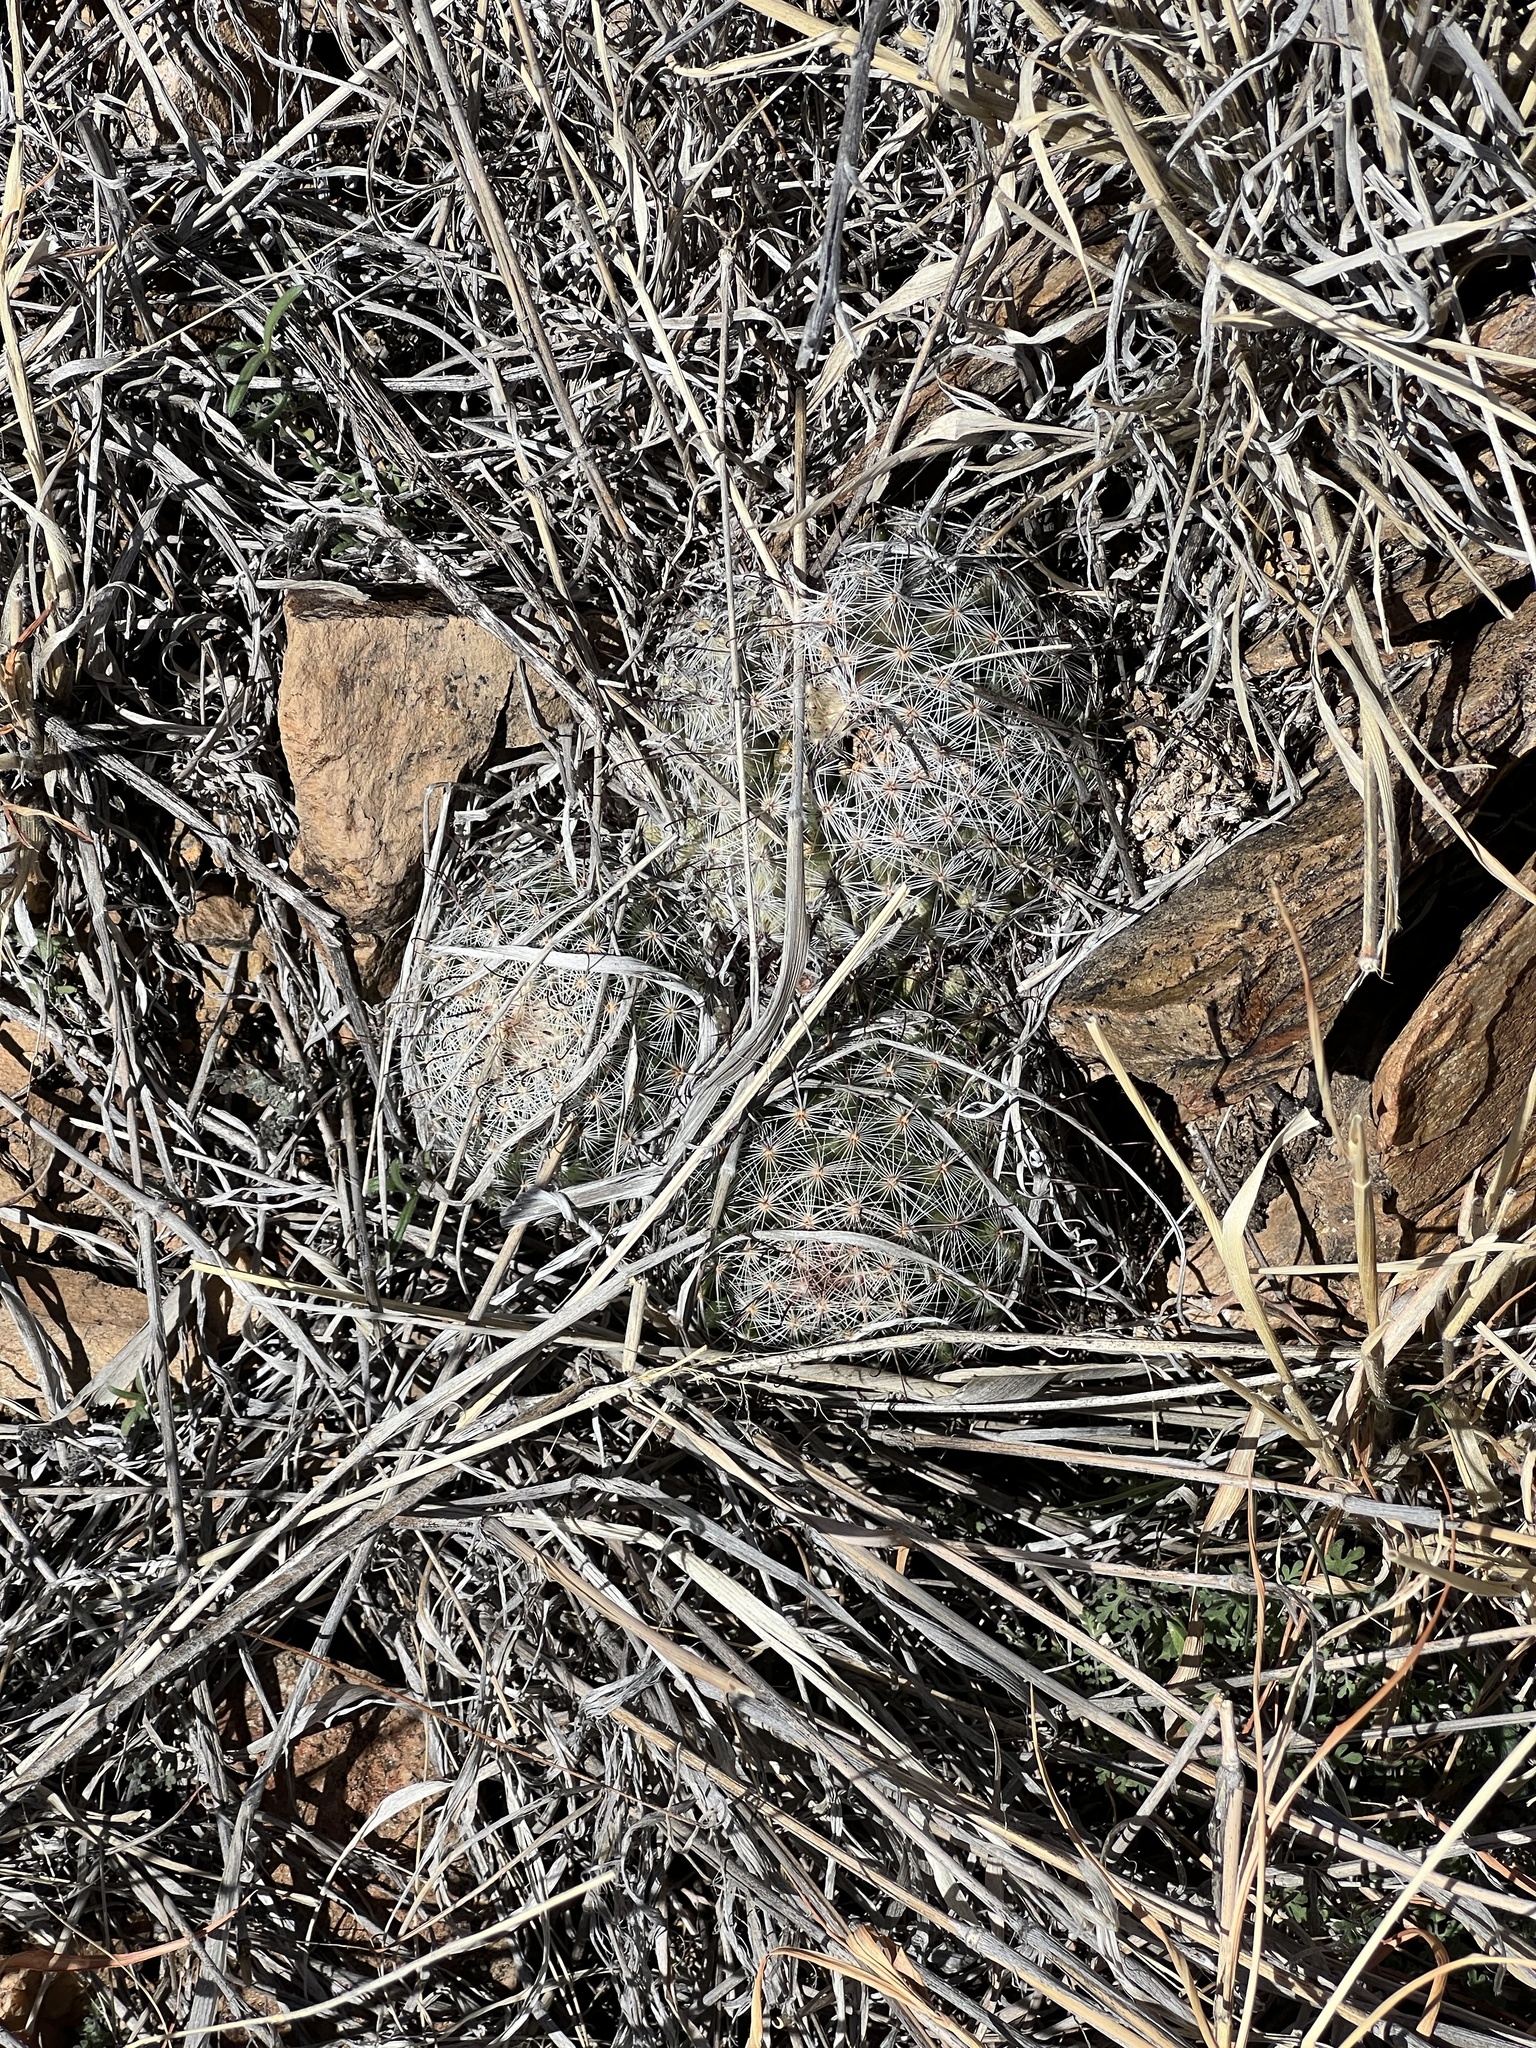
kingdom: Plantae
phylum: Tracheophyta
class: Magnoliopsida
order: Caryophyllales
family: Cactaceae
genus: Cochemiea
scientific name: Cochemiea grahamii
